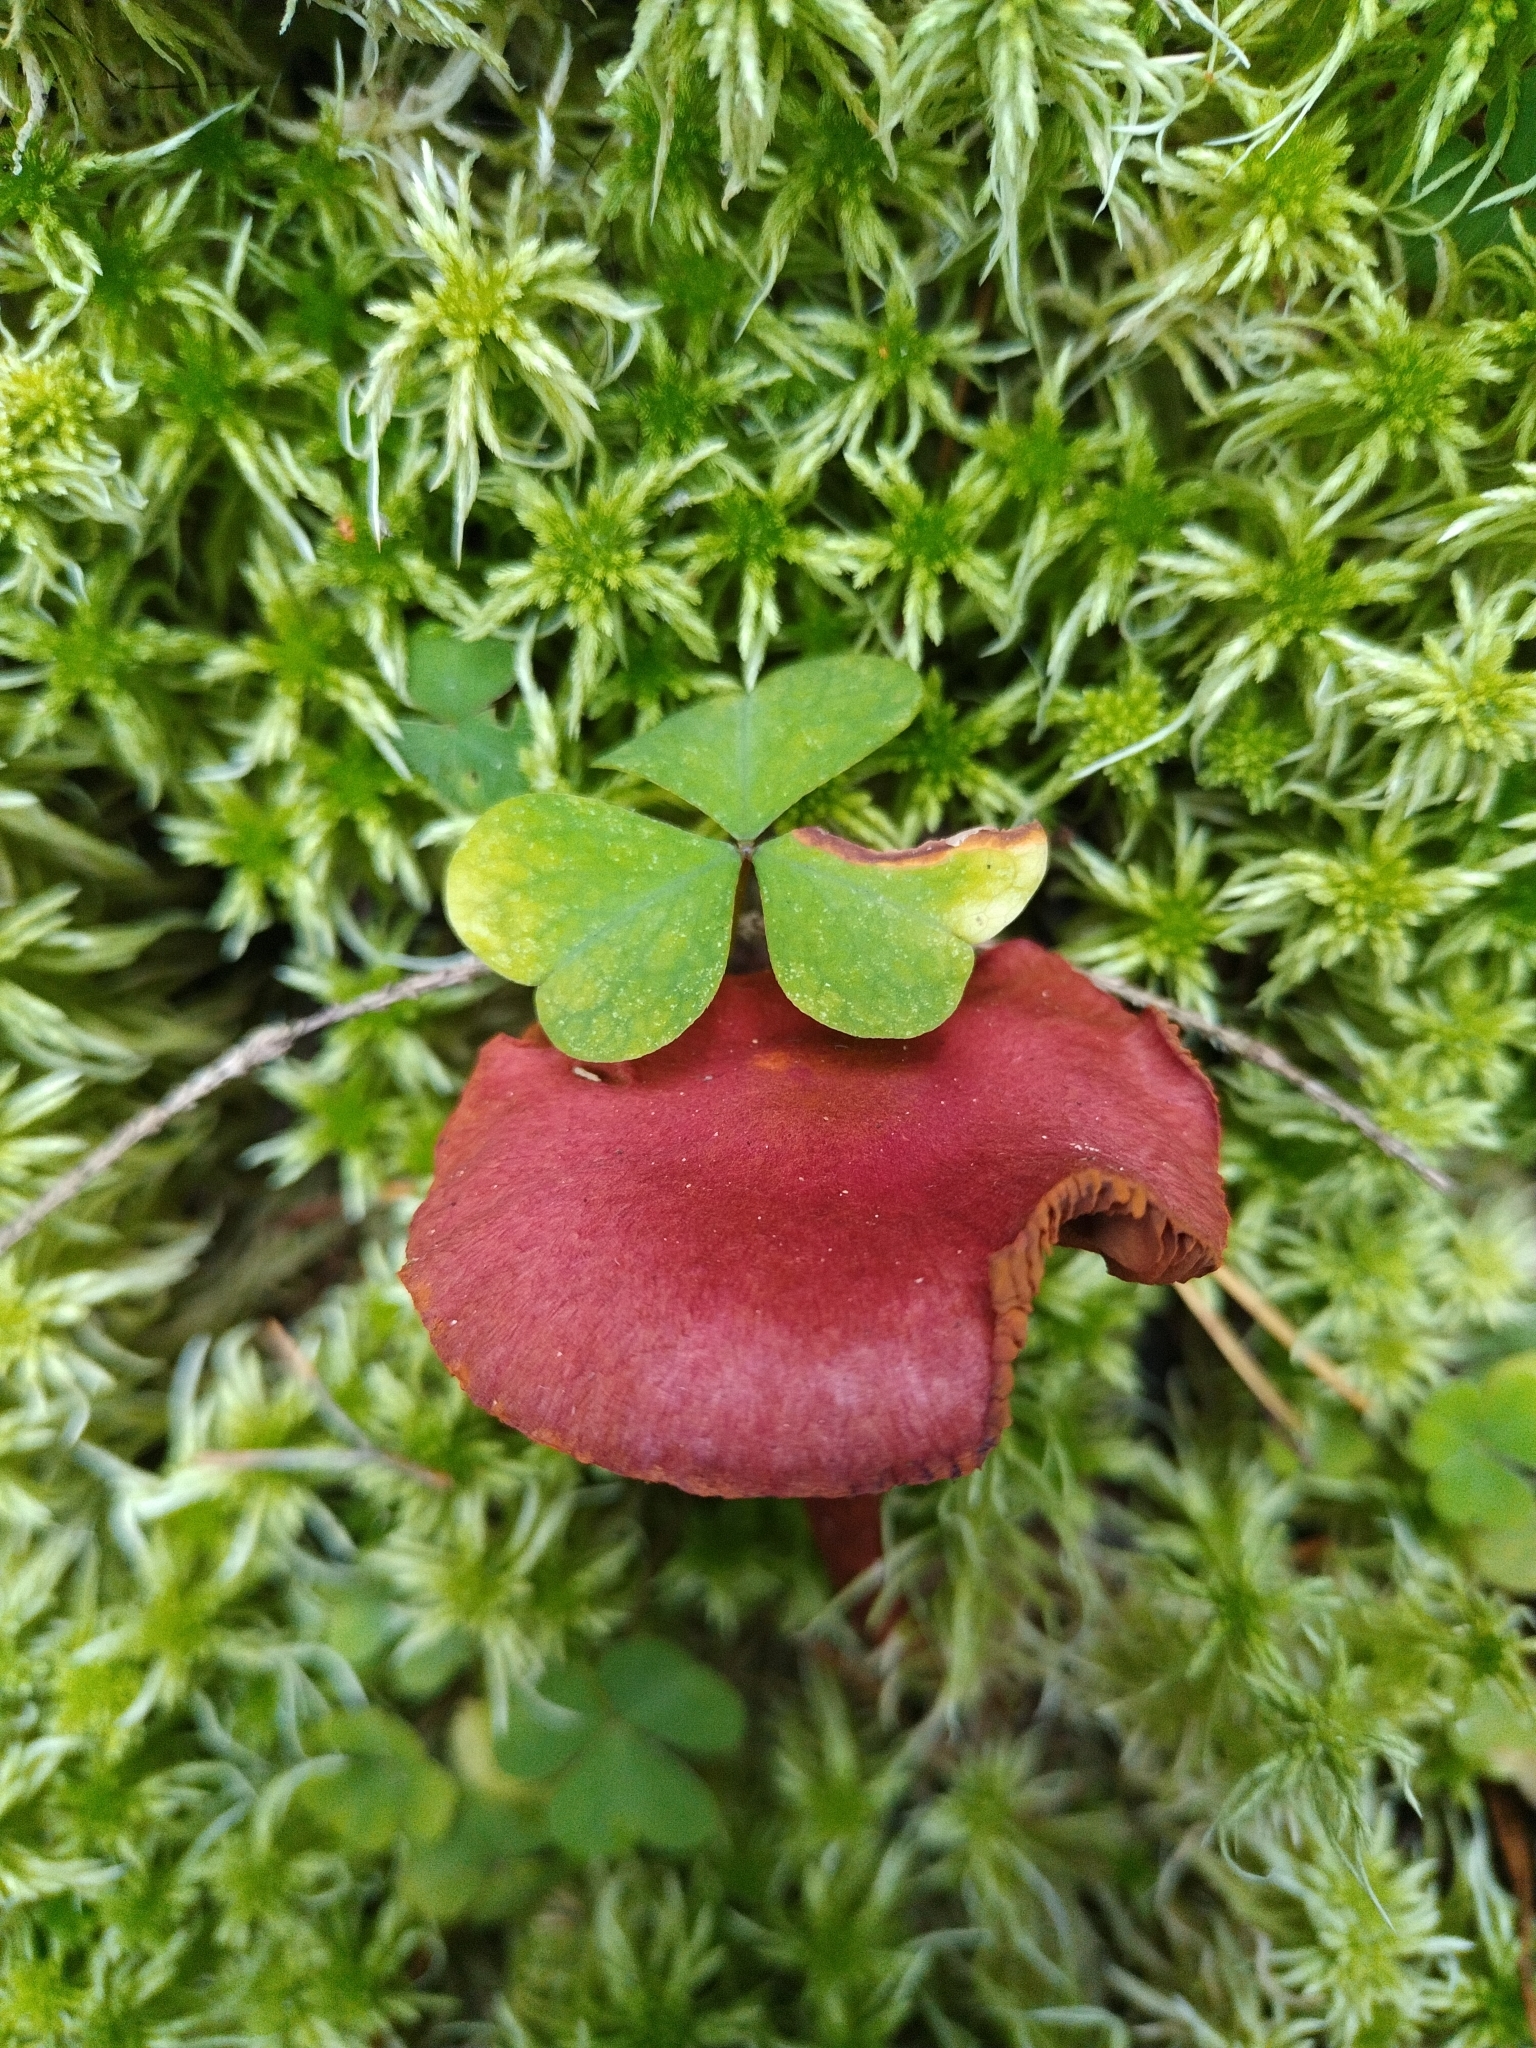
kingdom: Fungi
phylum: Basidiomycota
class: Agaricomycetes
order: Agaricales
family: Cortinariaceae
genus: Cortinarius
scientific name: Cortinarius sanguineus
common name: Bloodred webcap
